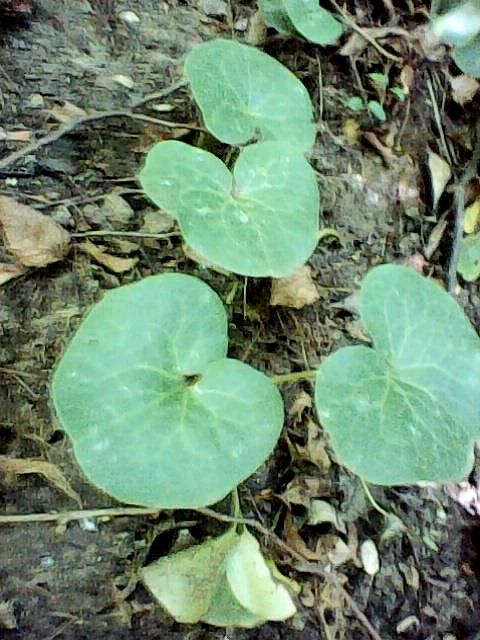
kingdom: Plantae
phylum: Tracheophyta
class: Magnoliopsida
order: Piperales
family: Aristolochiaceae
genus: Asarum
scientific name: Asarum europaeum
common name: Asarabacca
